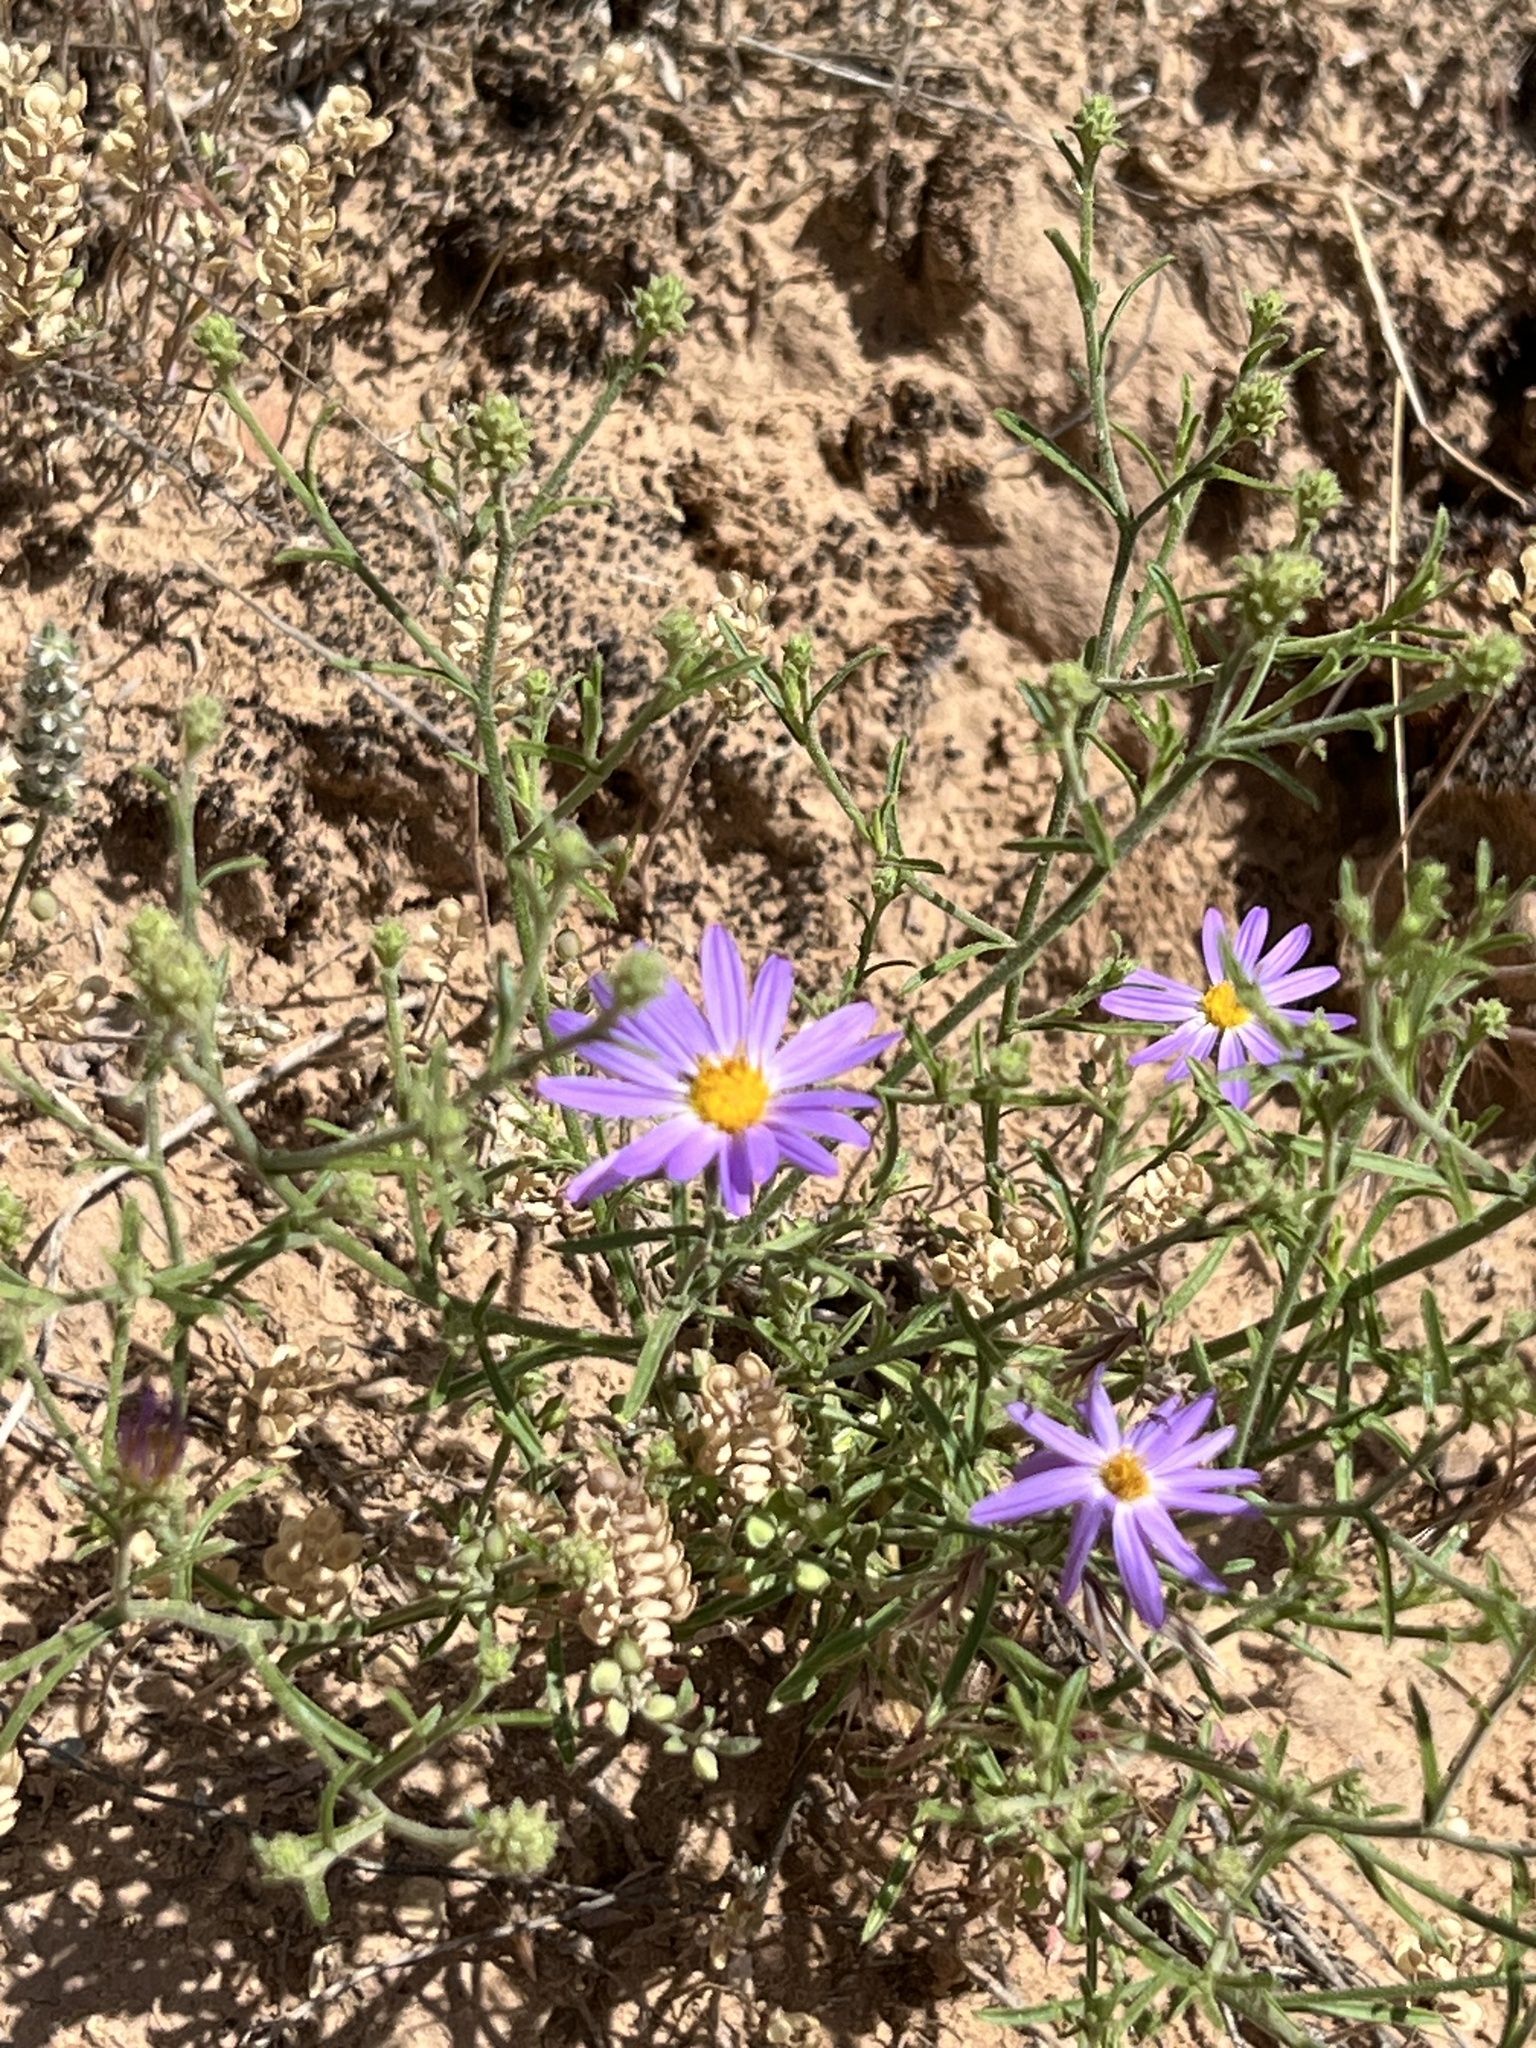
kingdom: Plantae
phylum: Tracheophyta
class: Magnoliopsida
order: Asterales
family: Asteraceae
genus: Dieteria
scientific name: Dieteria canescens
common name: Hoary-aster
